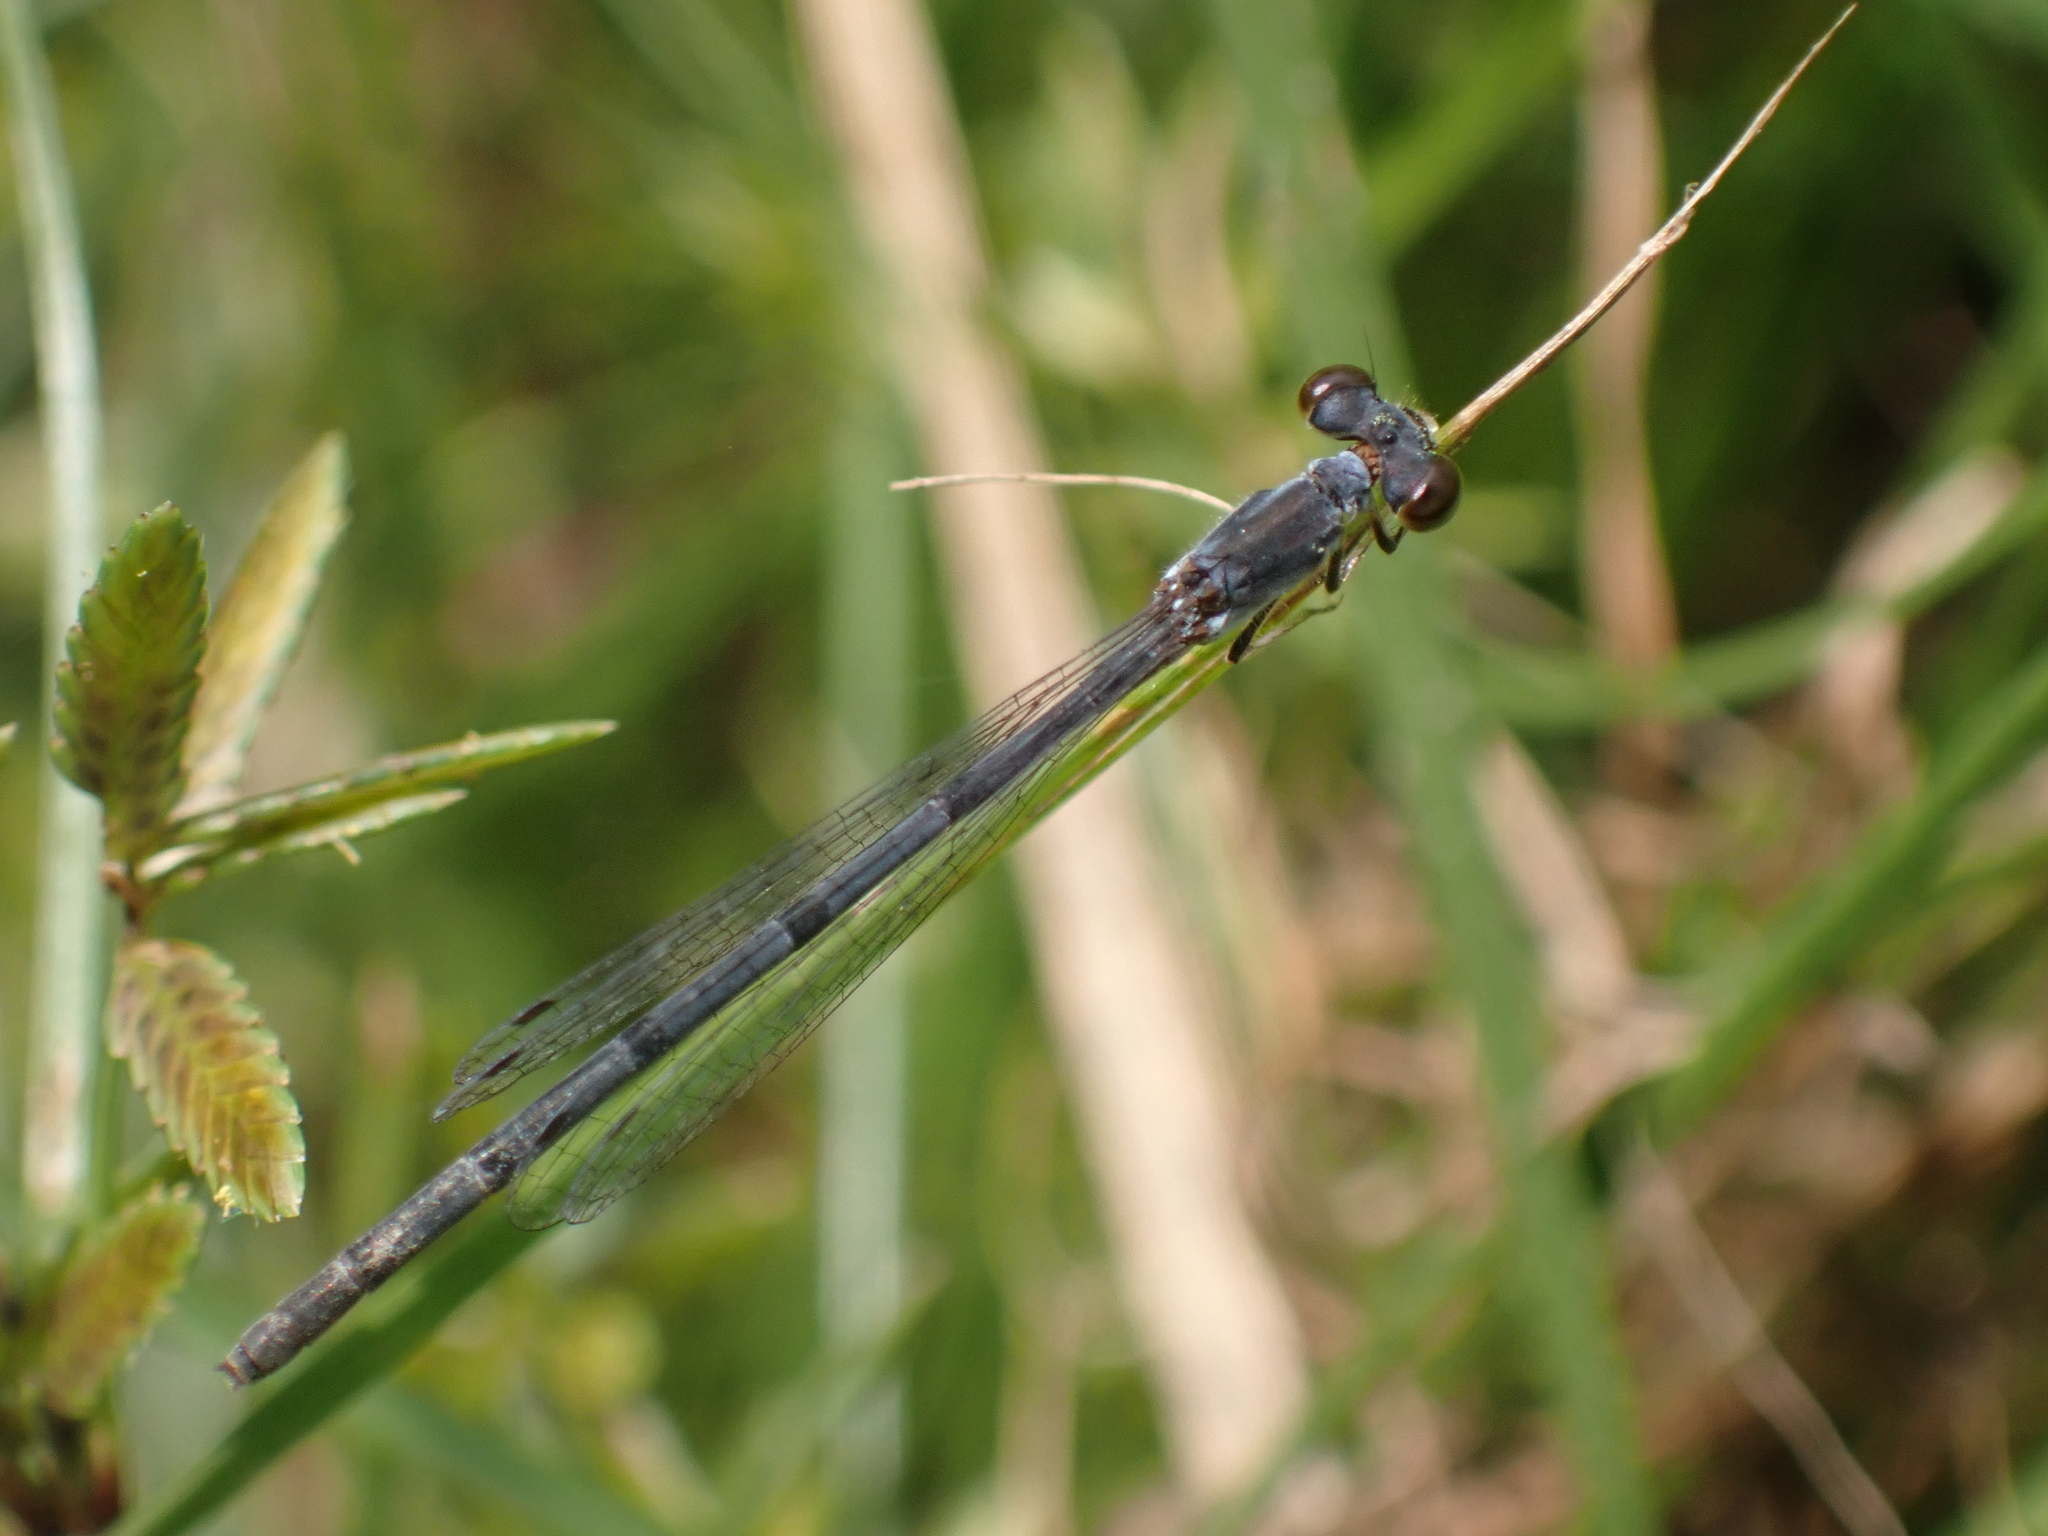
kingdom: Animalia
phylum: Arthropoda
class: Insecta
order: Odonata
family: Coenagrionidae
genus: Ischnura
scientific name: Ischnura posita
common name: Fragile forktail
